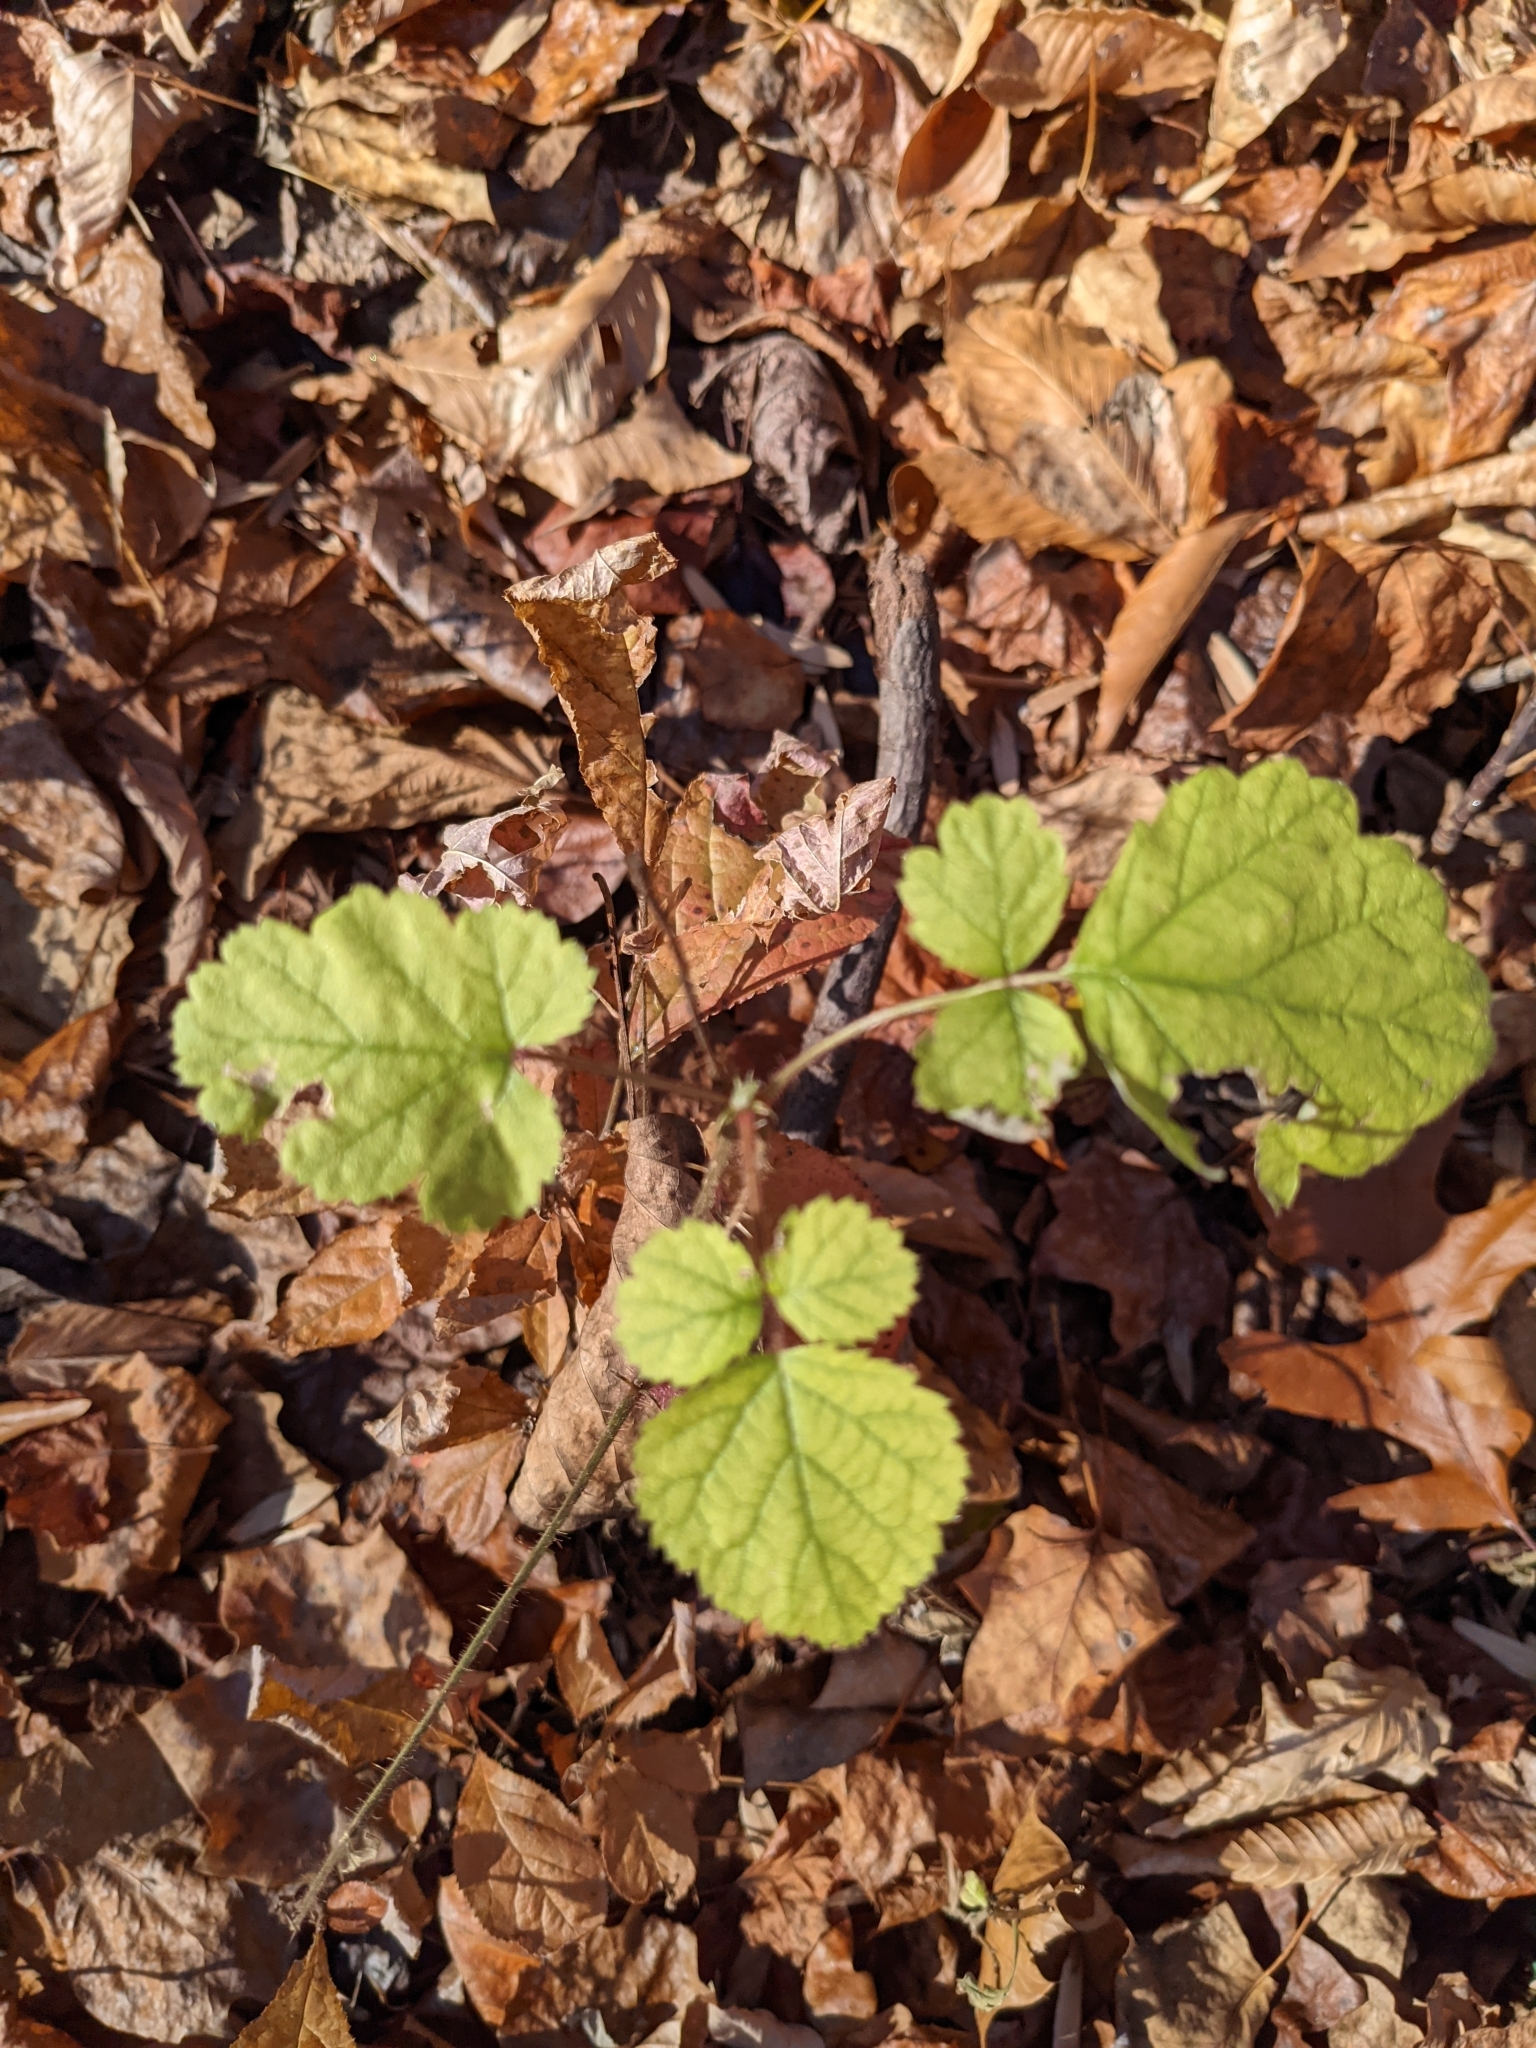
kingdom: Plantae
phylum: Tracheophyta
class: Magnoliopsida
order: Rosales
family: Rosaceae
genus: Rubus
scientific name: Rubus phoenicolasius
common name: Japanese wineberry
